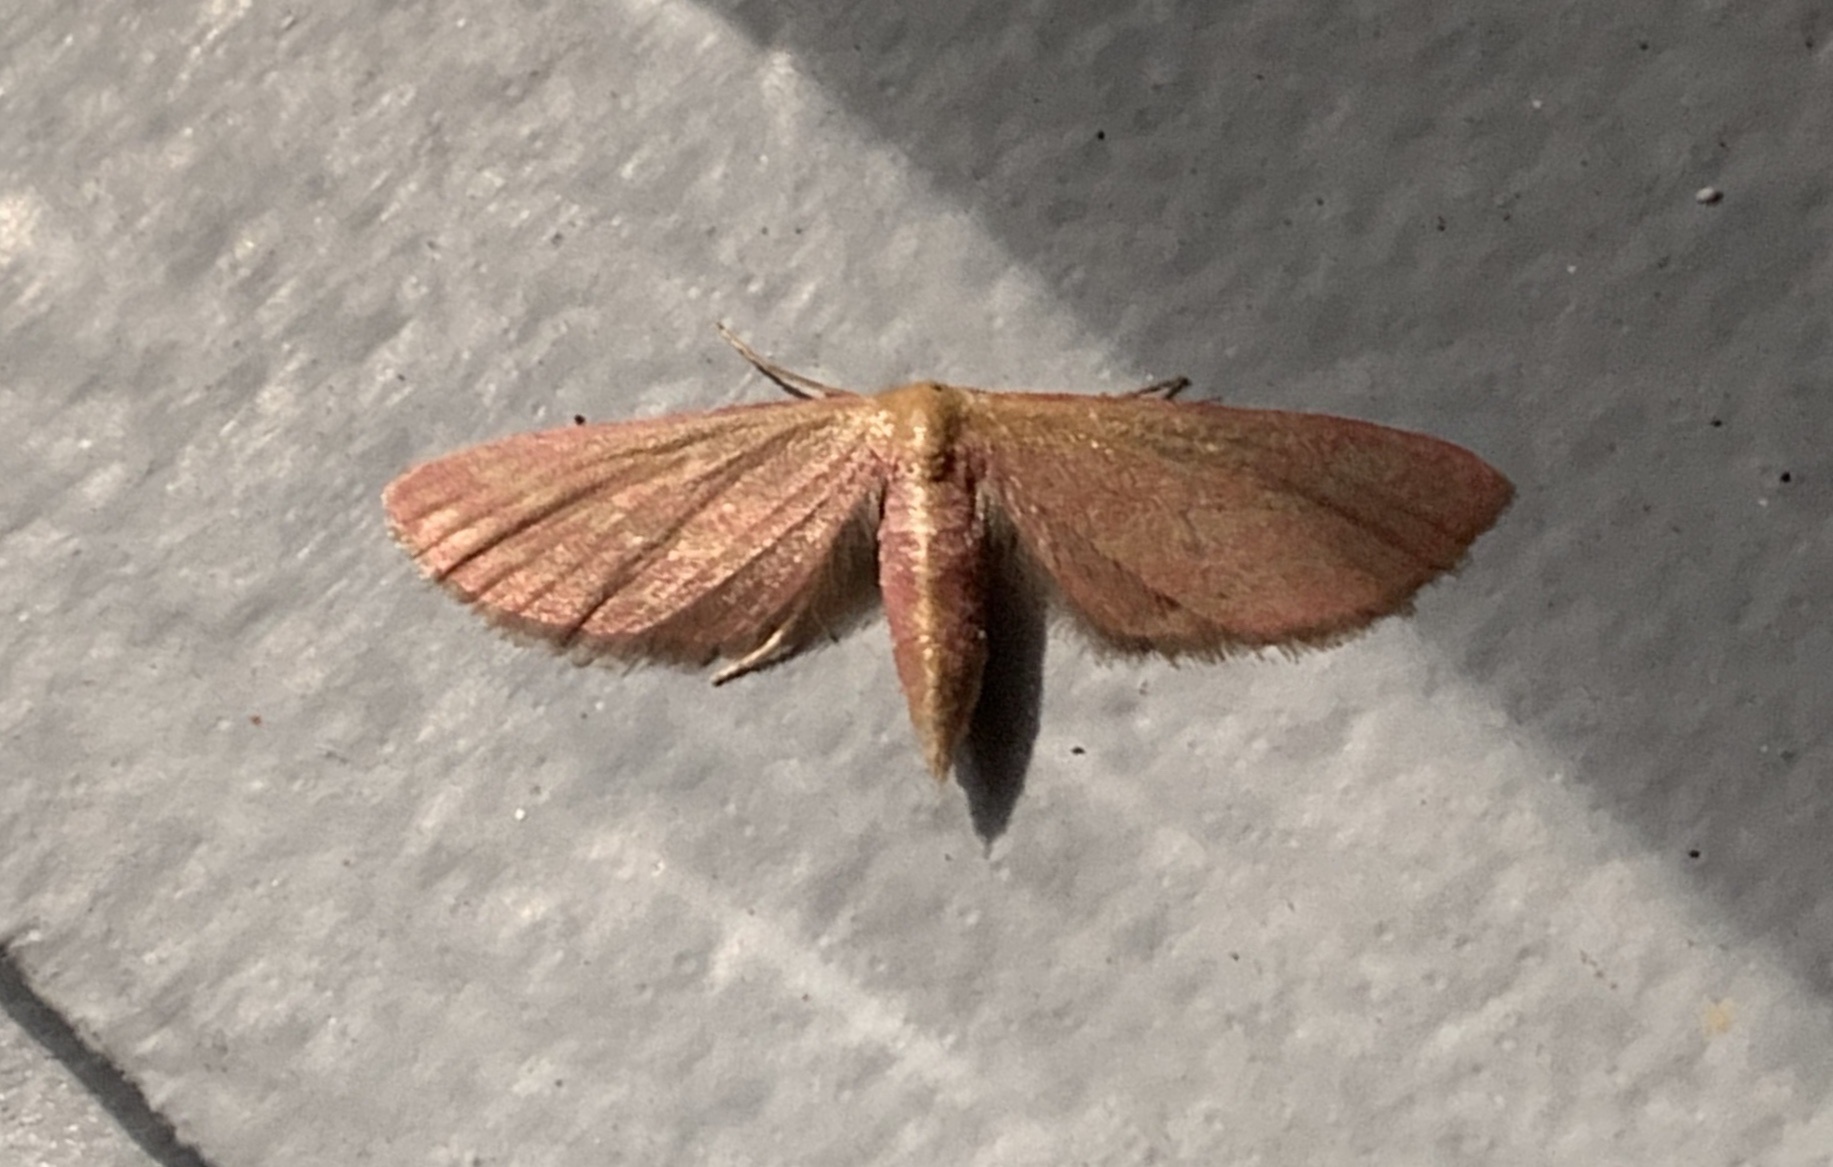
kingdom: Animalia
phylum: Arthropoda
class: Insecta
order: Lepidoptera
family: Geometridae
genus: Leptostales
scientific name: Leptostales laevitaria
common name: Raspberry wave moth
